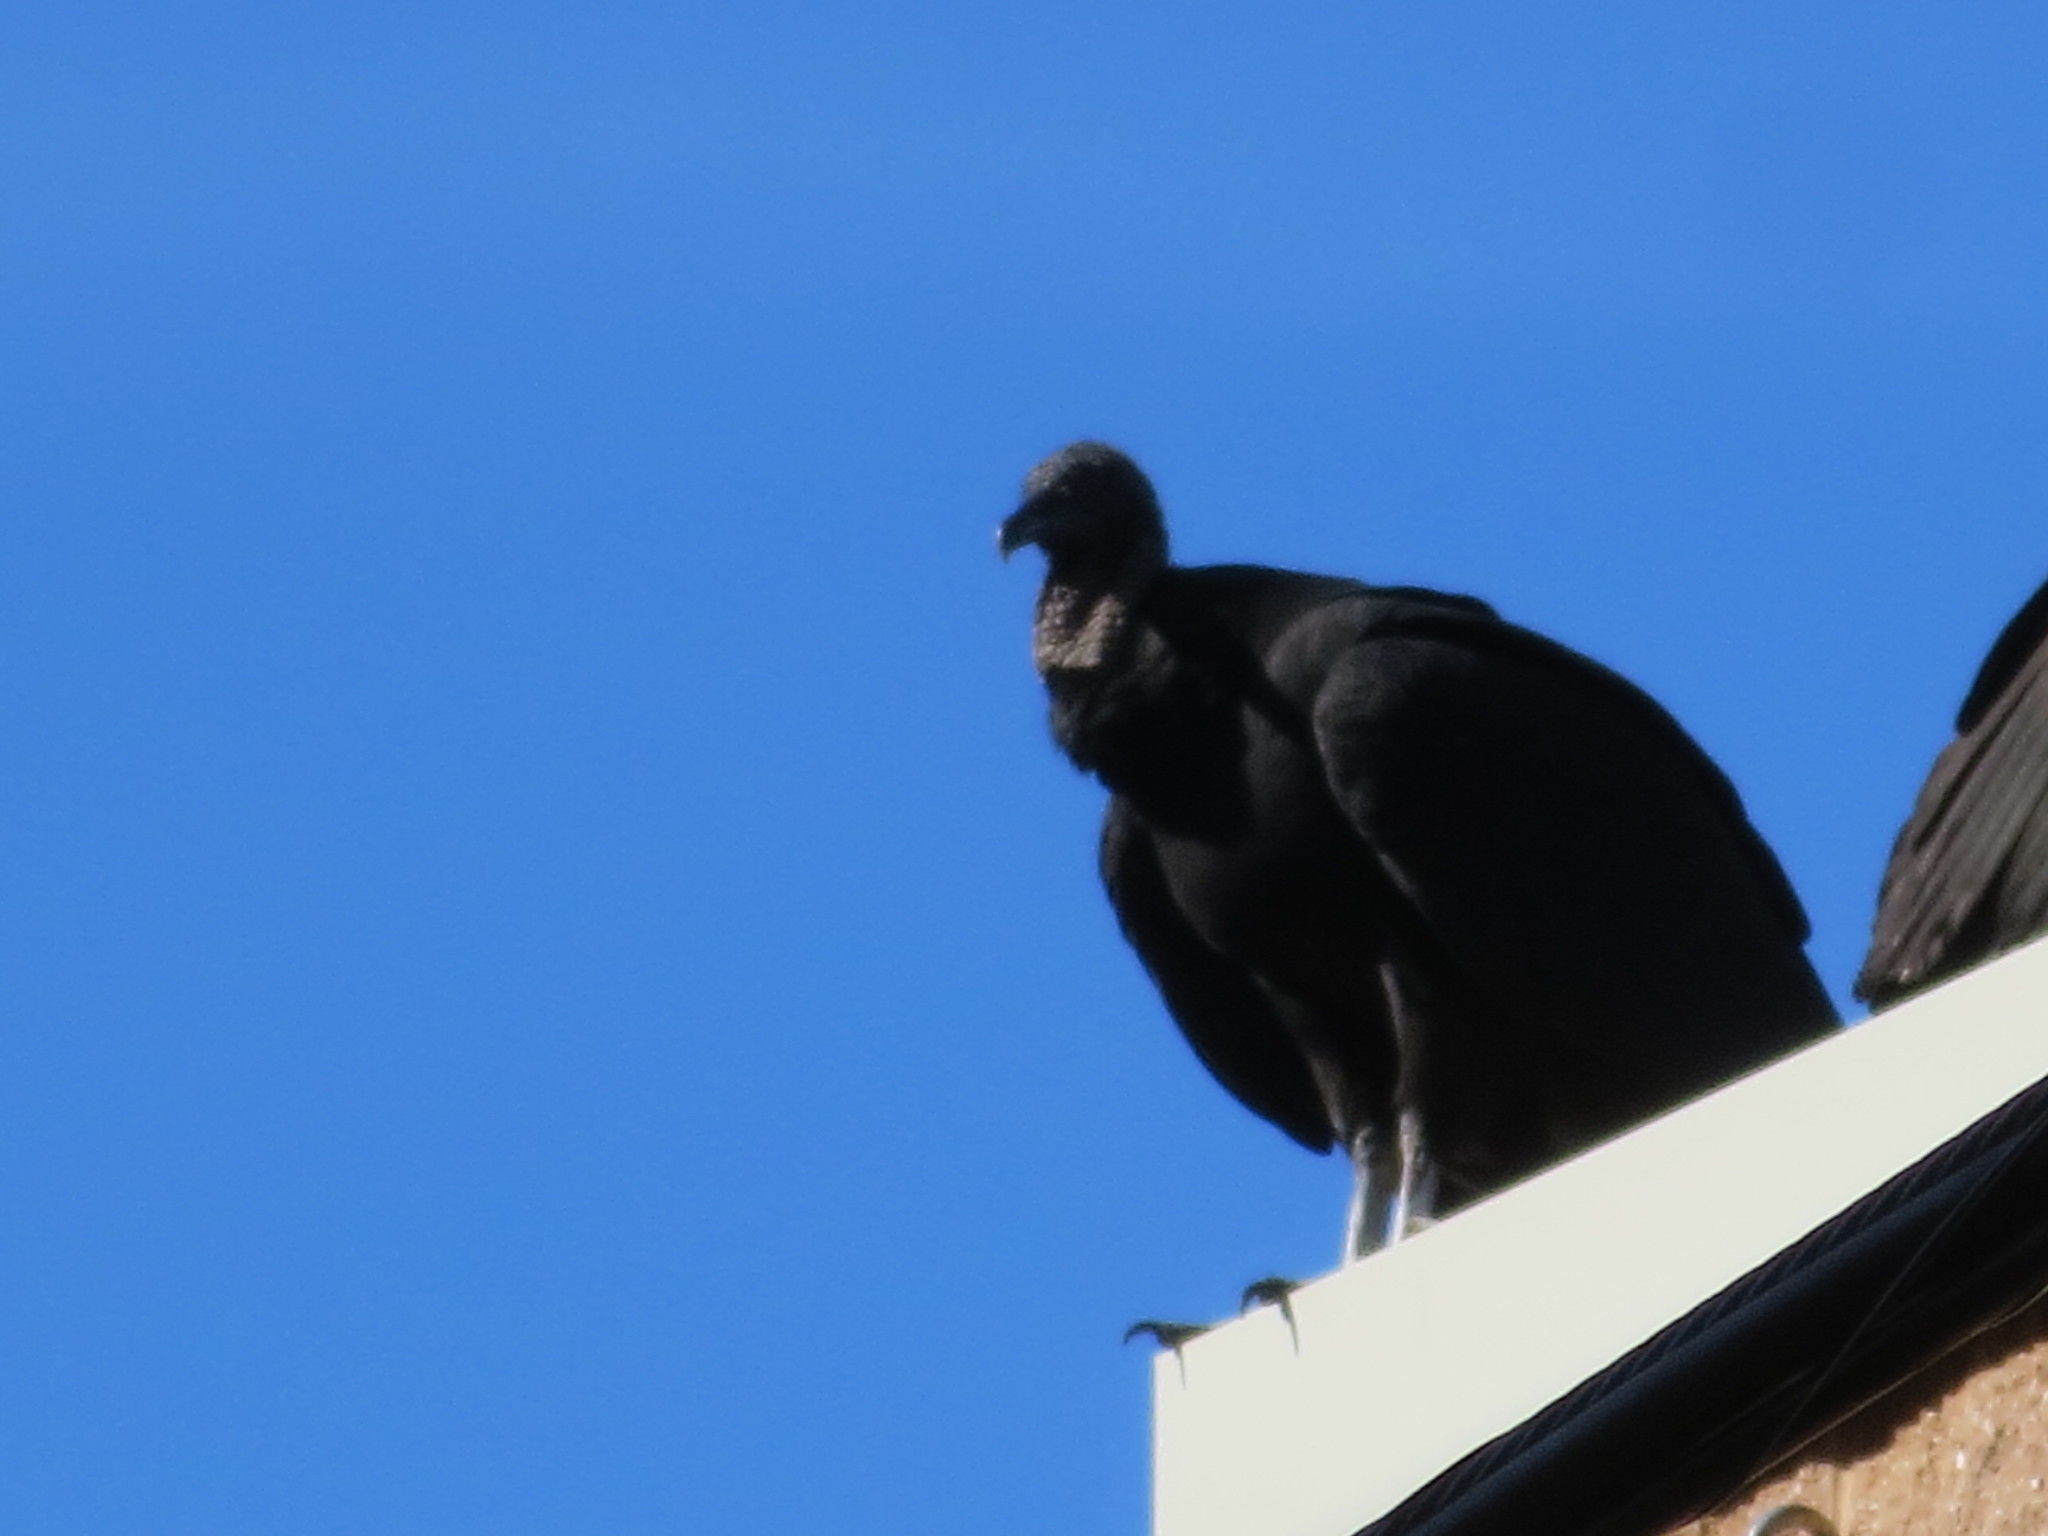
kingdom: Animalia
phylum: Chordata
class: Aves
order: Accipitriformes
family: Cathartidae
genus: Coragyps
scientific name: Coragyps atratus
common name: Black vulture
